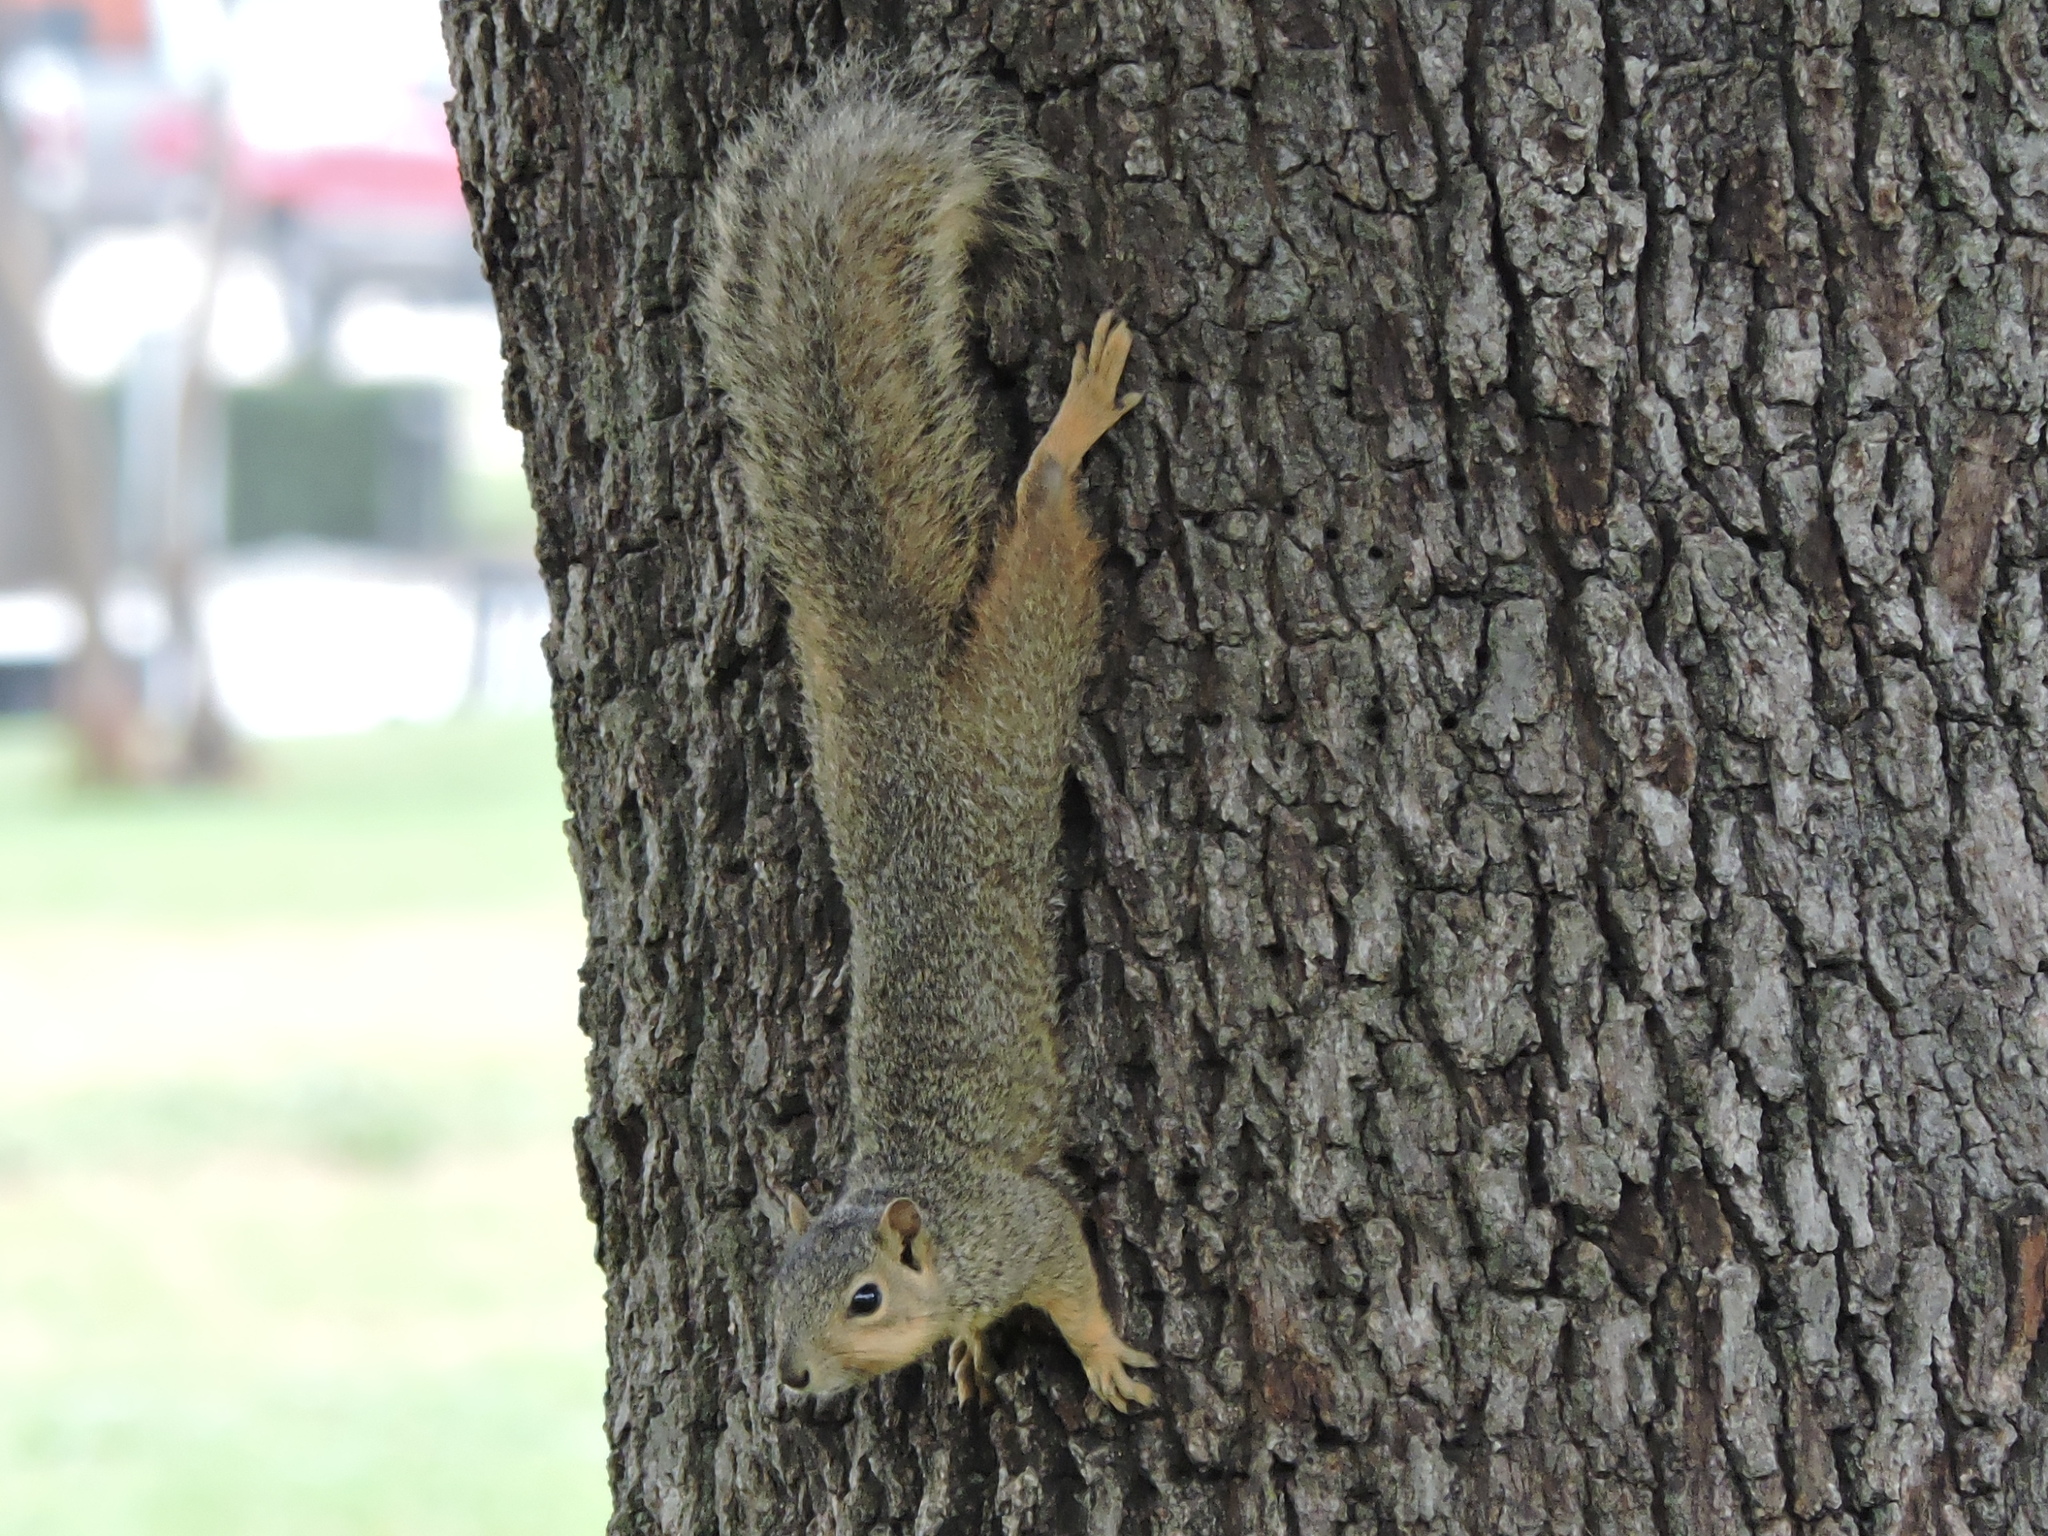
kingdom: Animalia
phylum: Chordata
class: Mammalia
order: Rodentia
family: Sciuridae
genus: Sciurus
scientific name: Sciurus niger
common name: Fox squirrel
